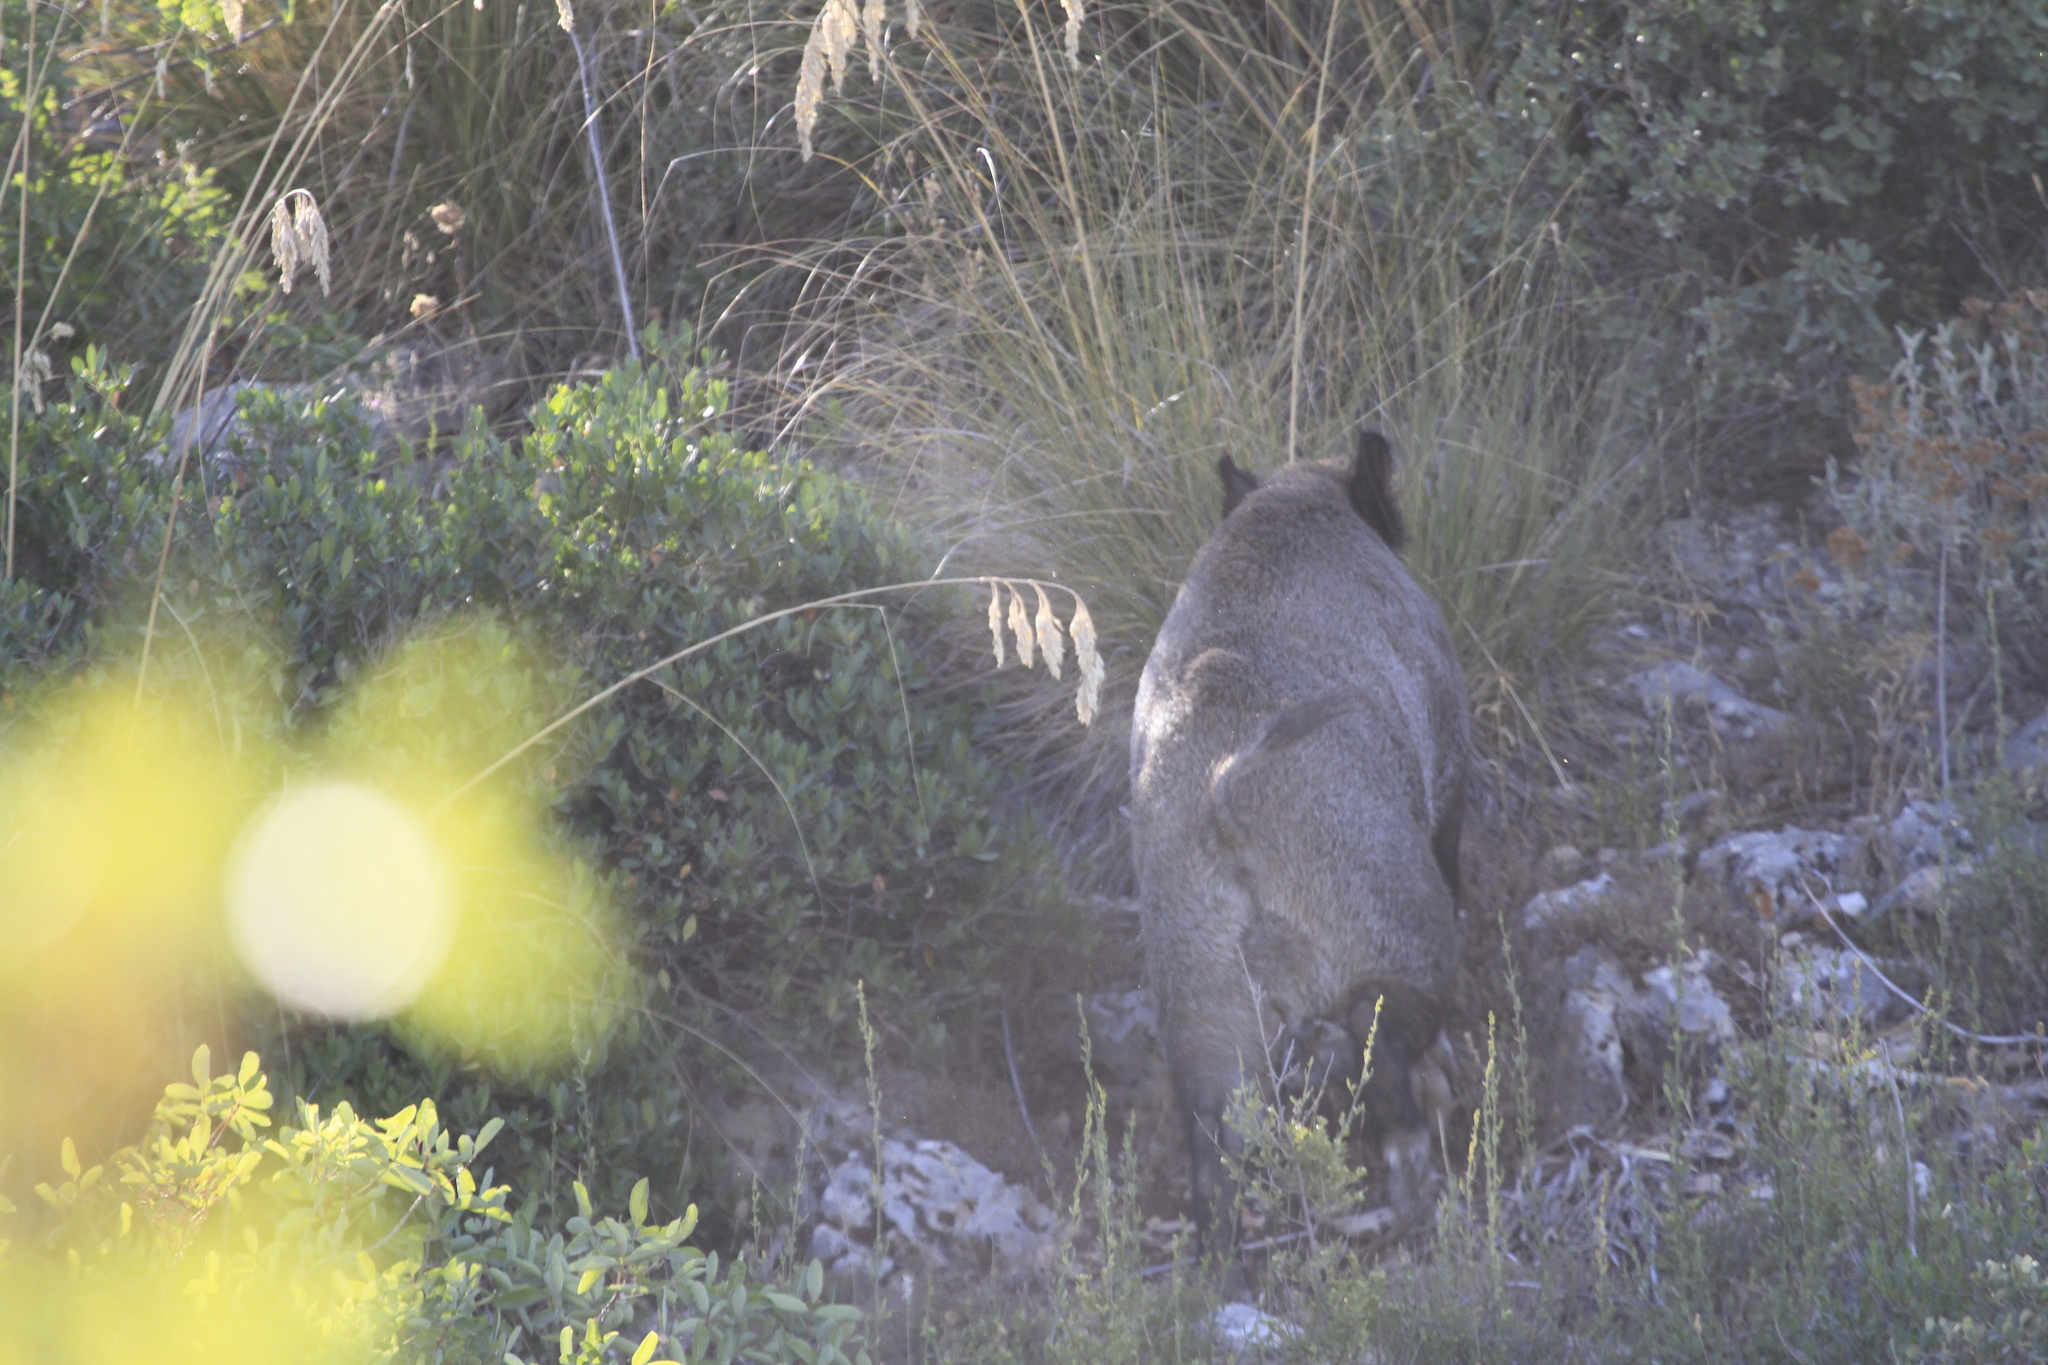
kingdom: Animalia
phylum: Chordata
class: Mammalia
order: Artiodactyla
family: Suidae
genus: Sus
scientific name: Sus scrofa
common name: Wild boar
